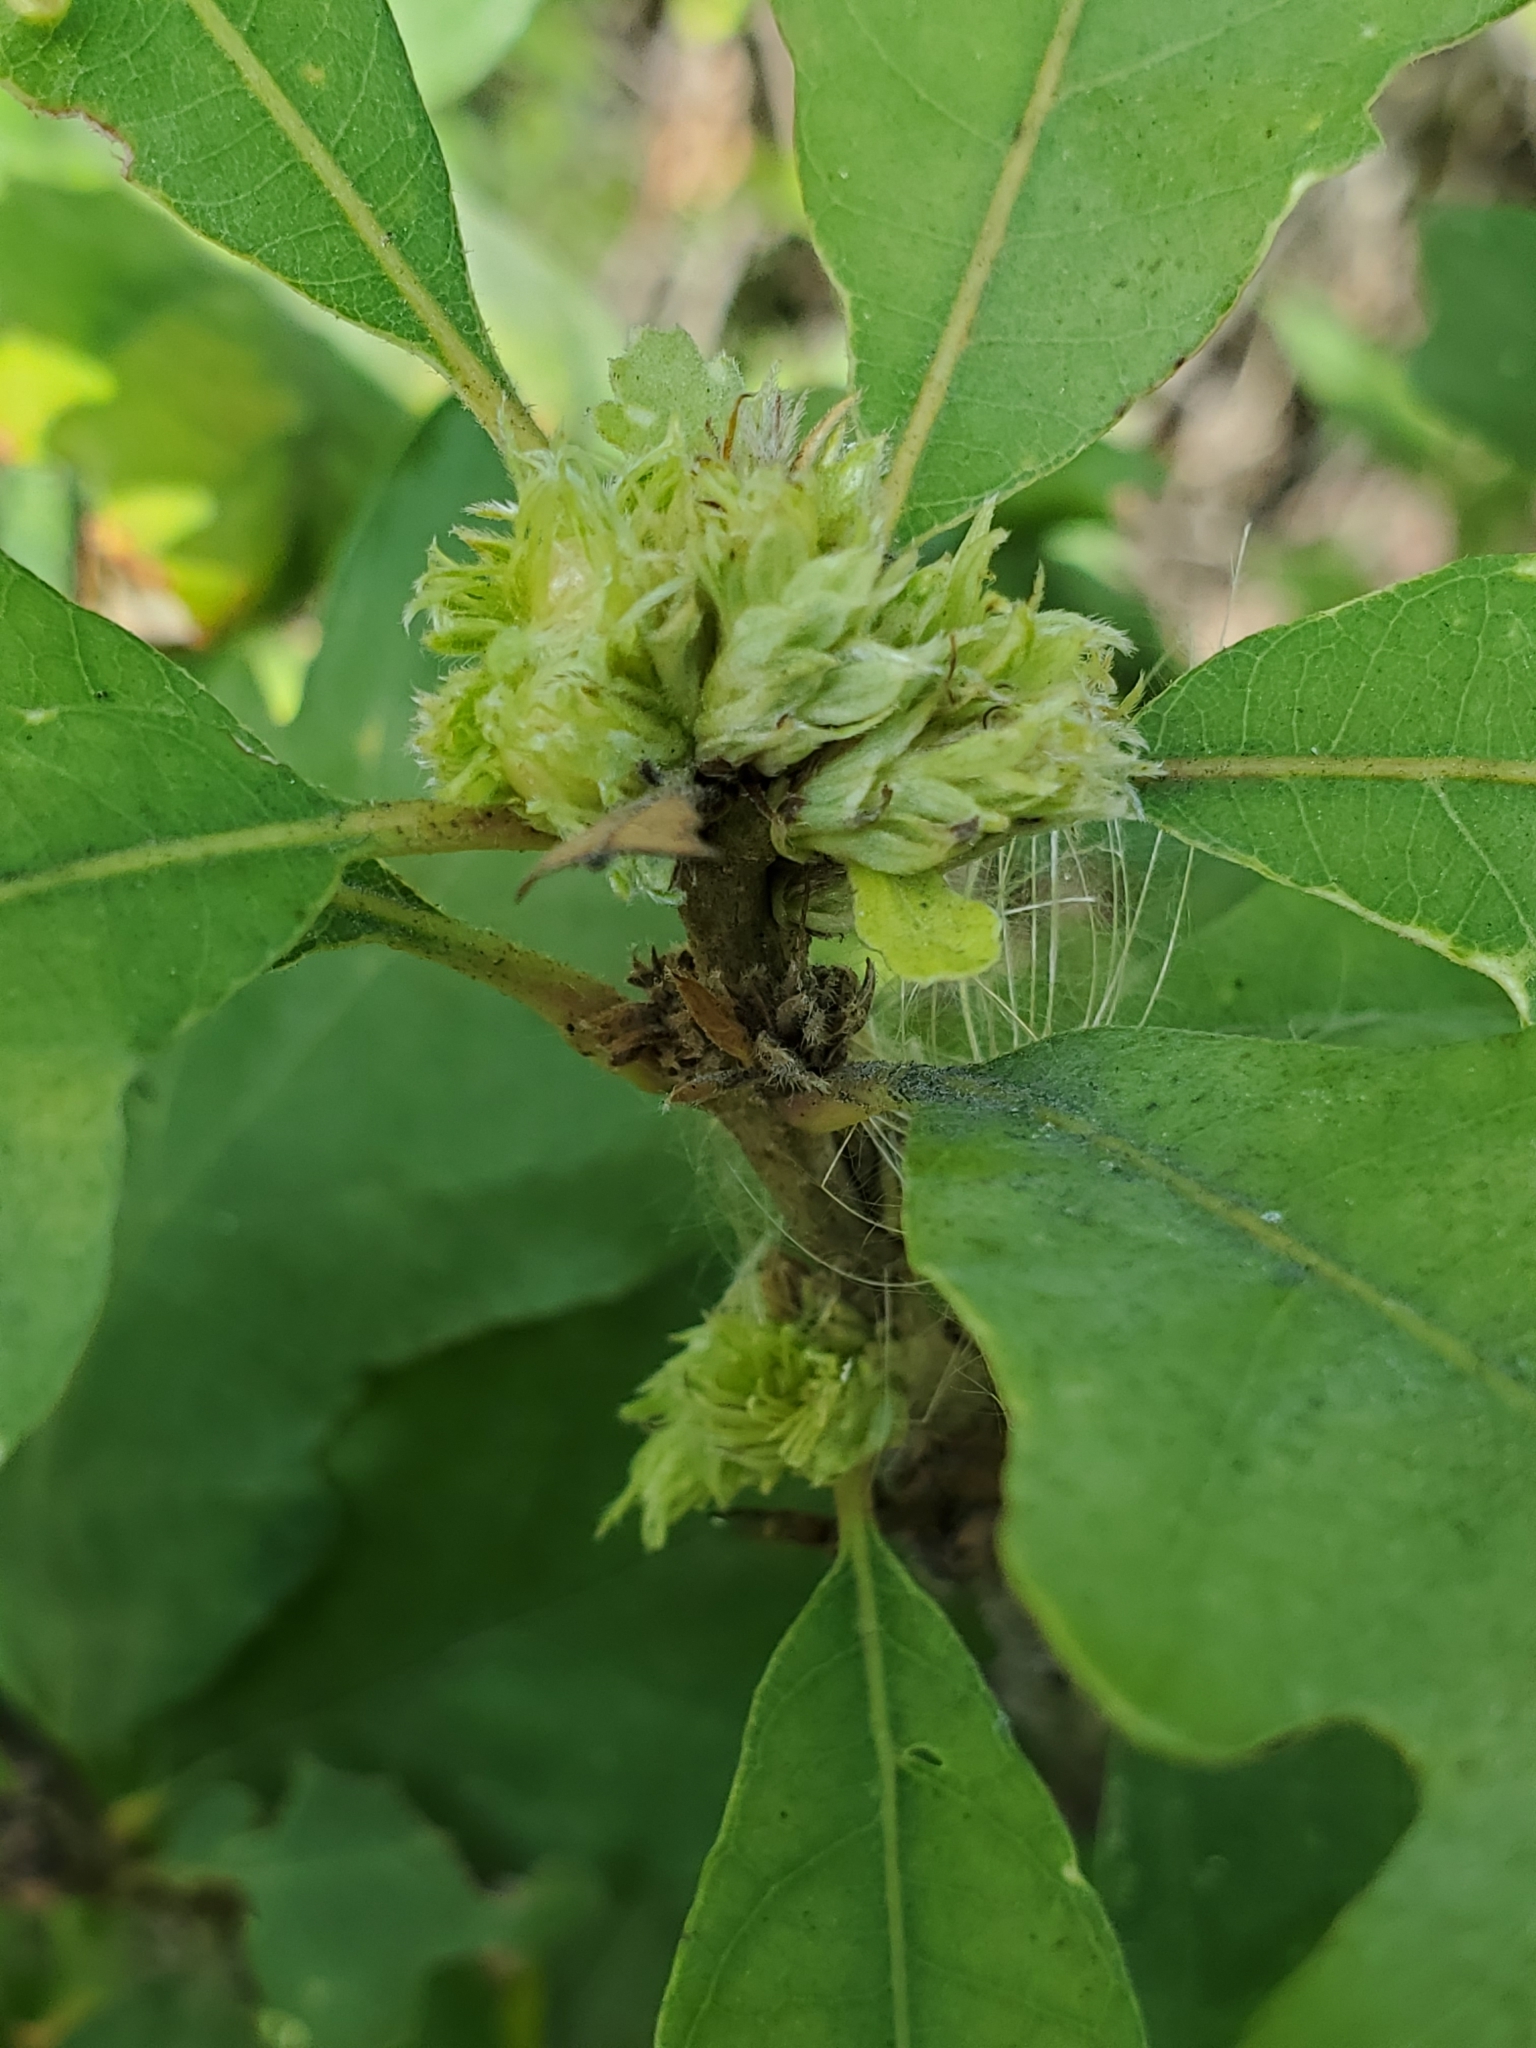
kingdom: Animalia
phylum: Arthropoda
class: Insecta
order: Hymenoptera
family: Cynipidae
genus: Andricus
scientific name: Andricus
